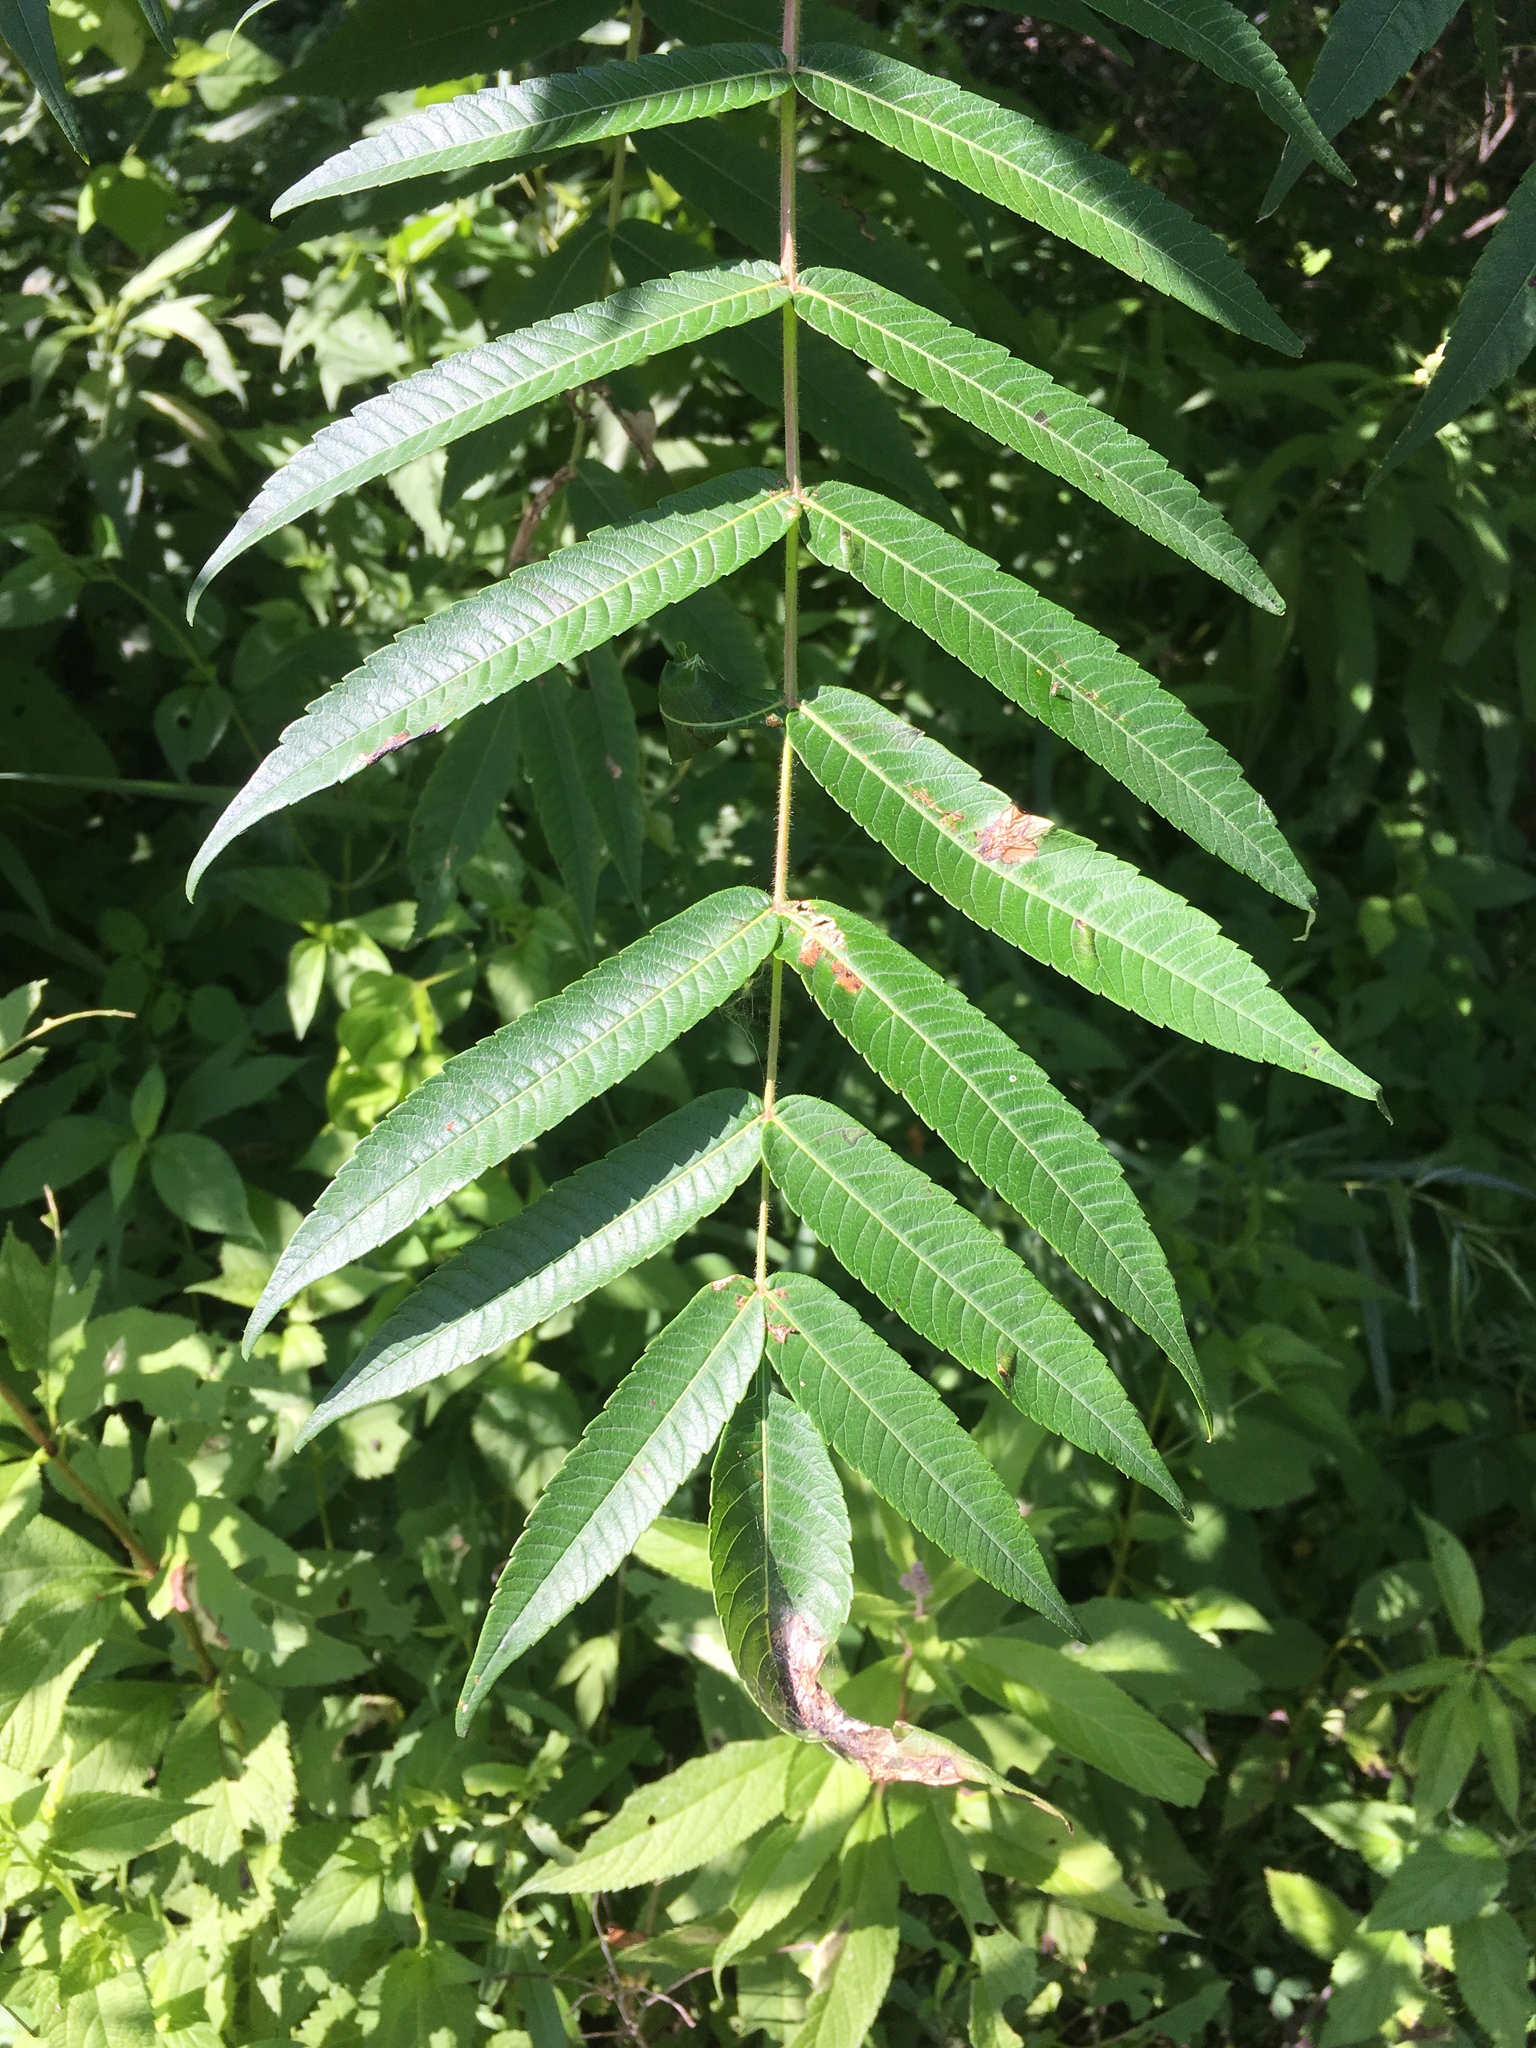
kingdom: Plantae
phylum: Tracheophyta
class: Magnoliopsida
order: Sapindales
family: Anacardiaceae
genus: Rhus
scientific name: Rhus typhina
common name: Staghorn sumac
